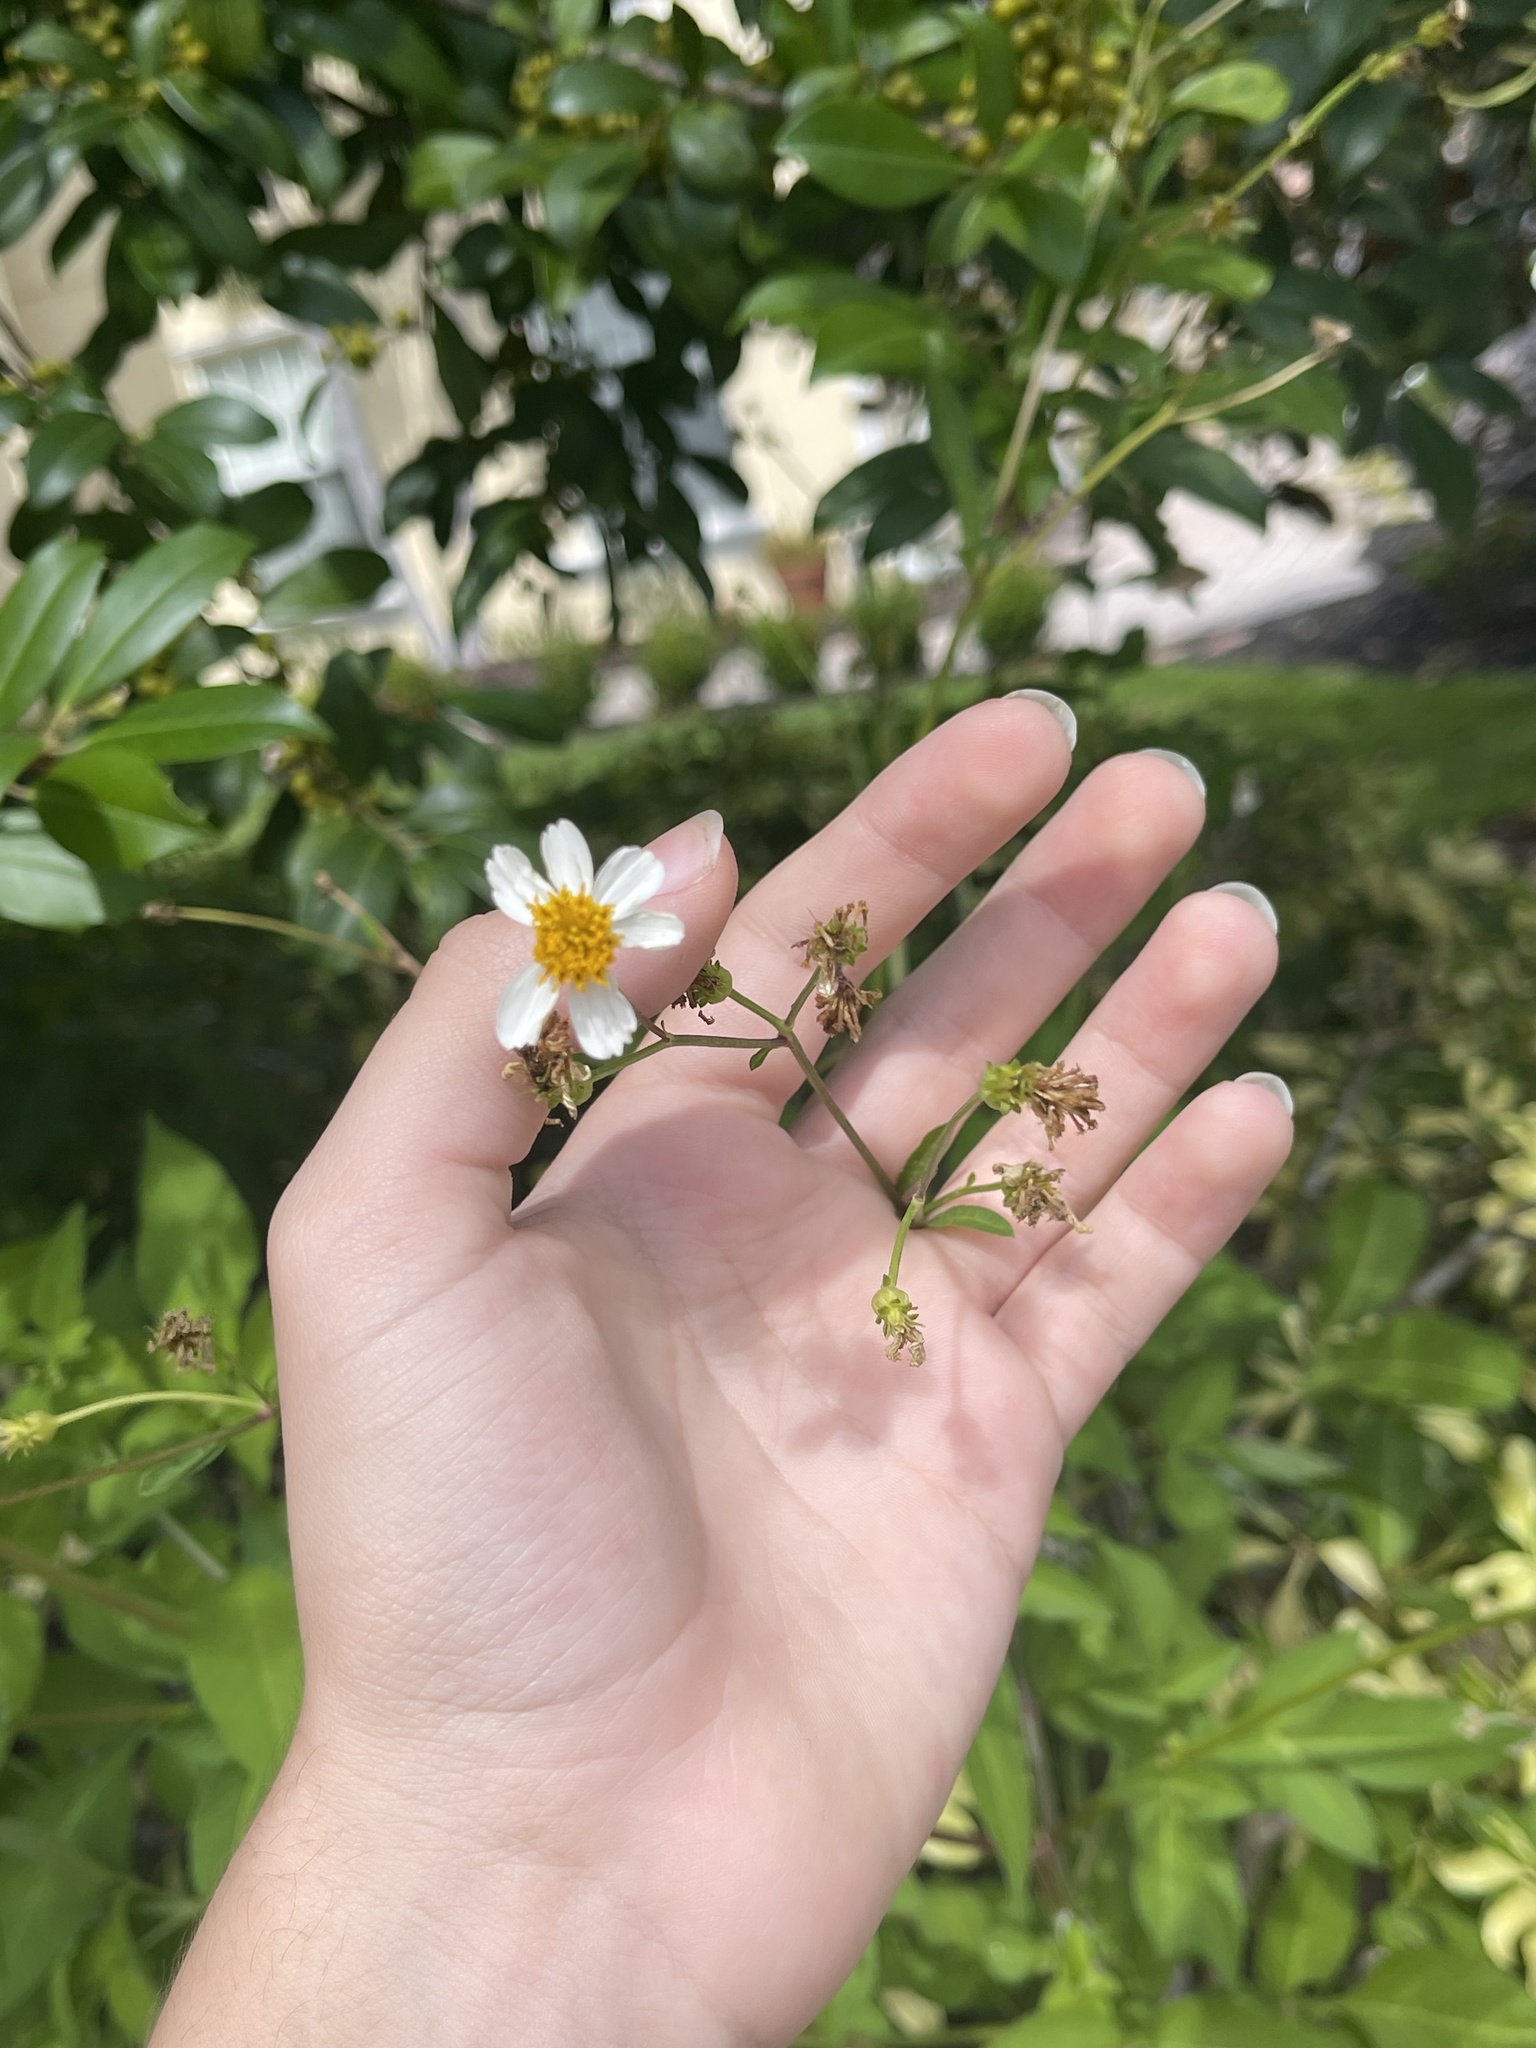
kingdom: Plantae
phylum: Tracheophyta
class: Magnoliopsida
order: Asterales
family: Asteraceae
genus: Bidens
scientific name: Bidens alba
